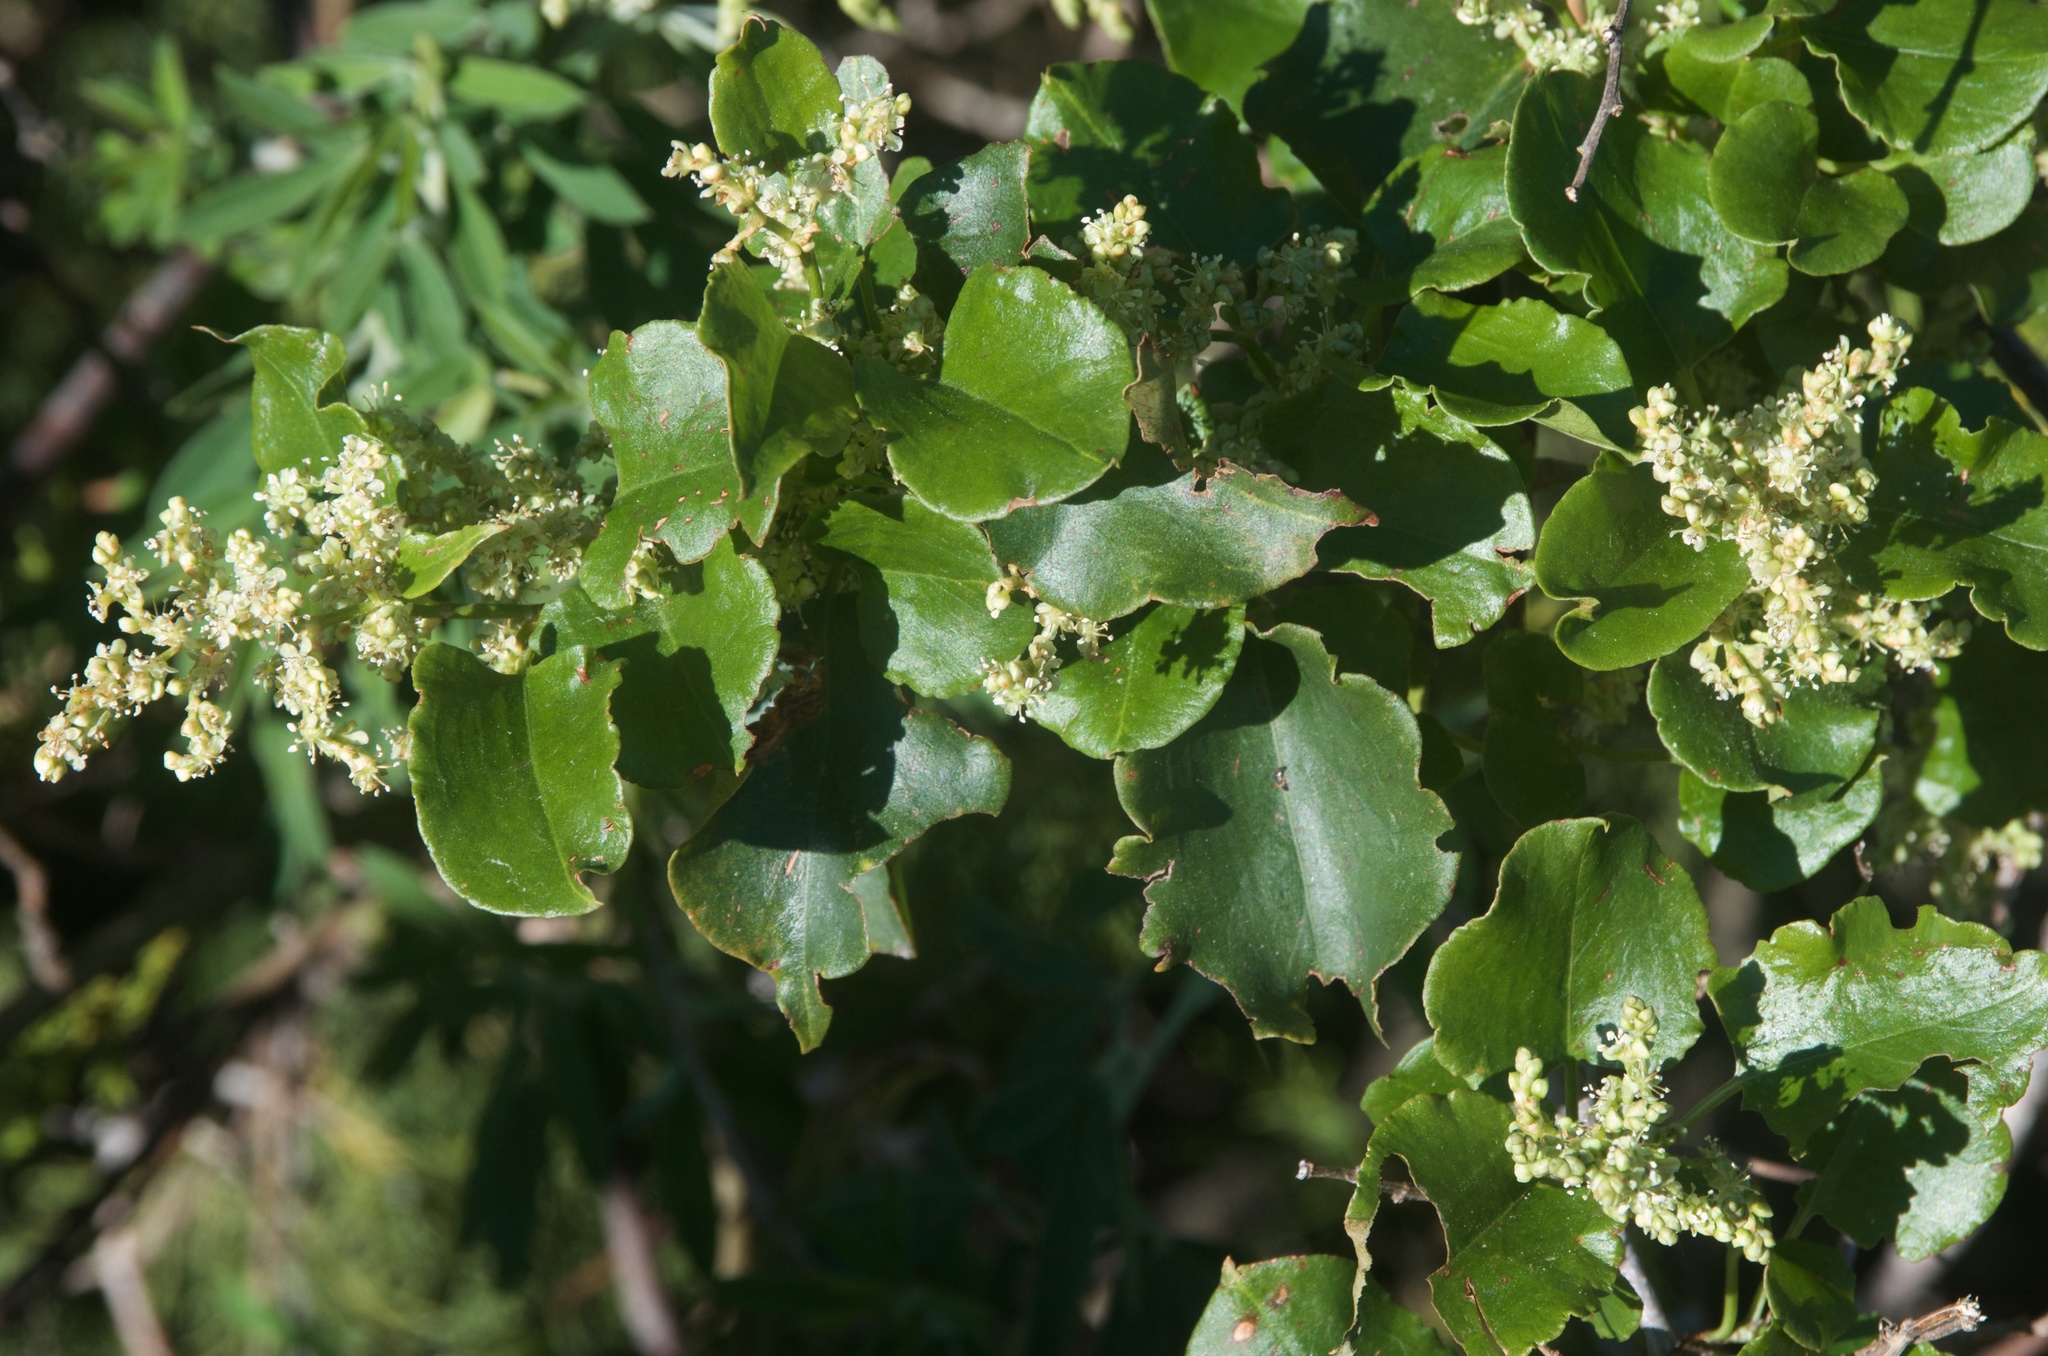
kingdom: Plantae
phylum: Tracheophyta
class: Magnoliopsida
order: Caryophyllales
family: Polygonaceae
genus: Muehlenbeckia
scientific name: Muehlenbeckia australis
